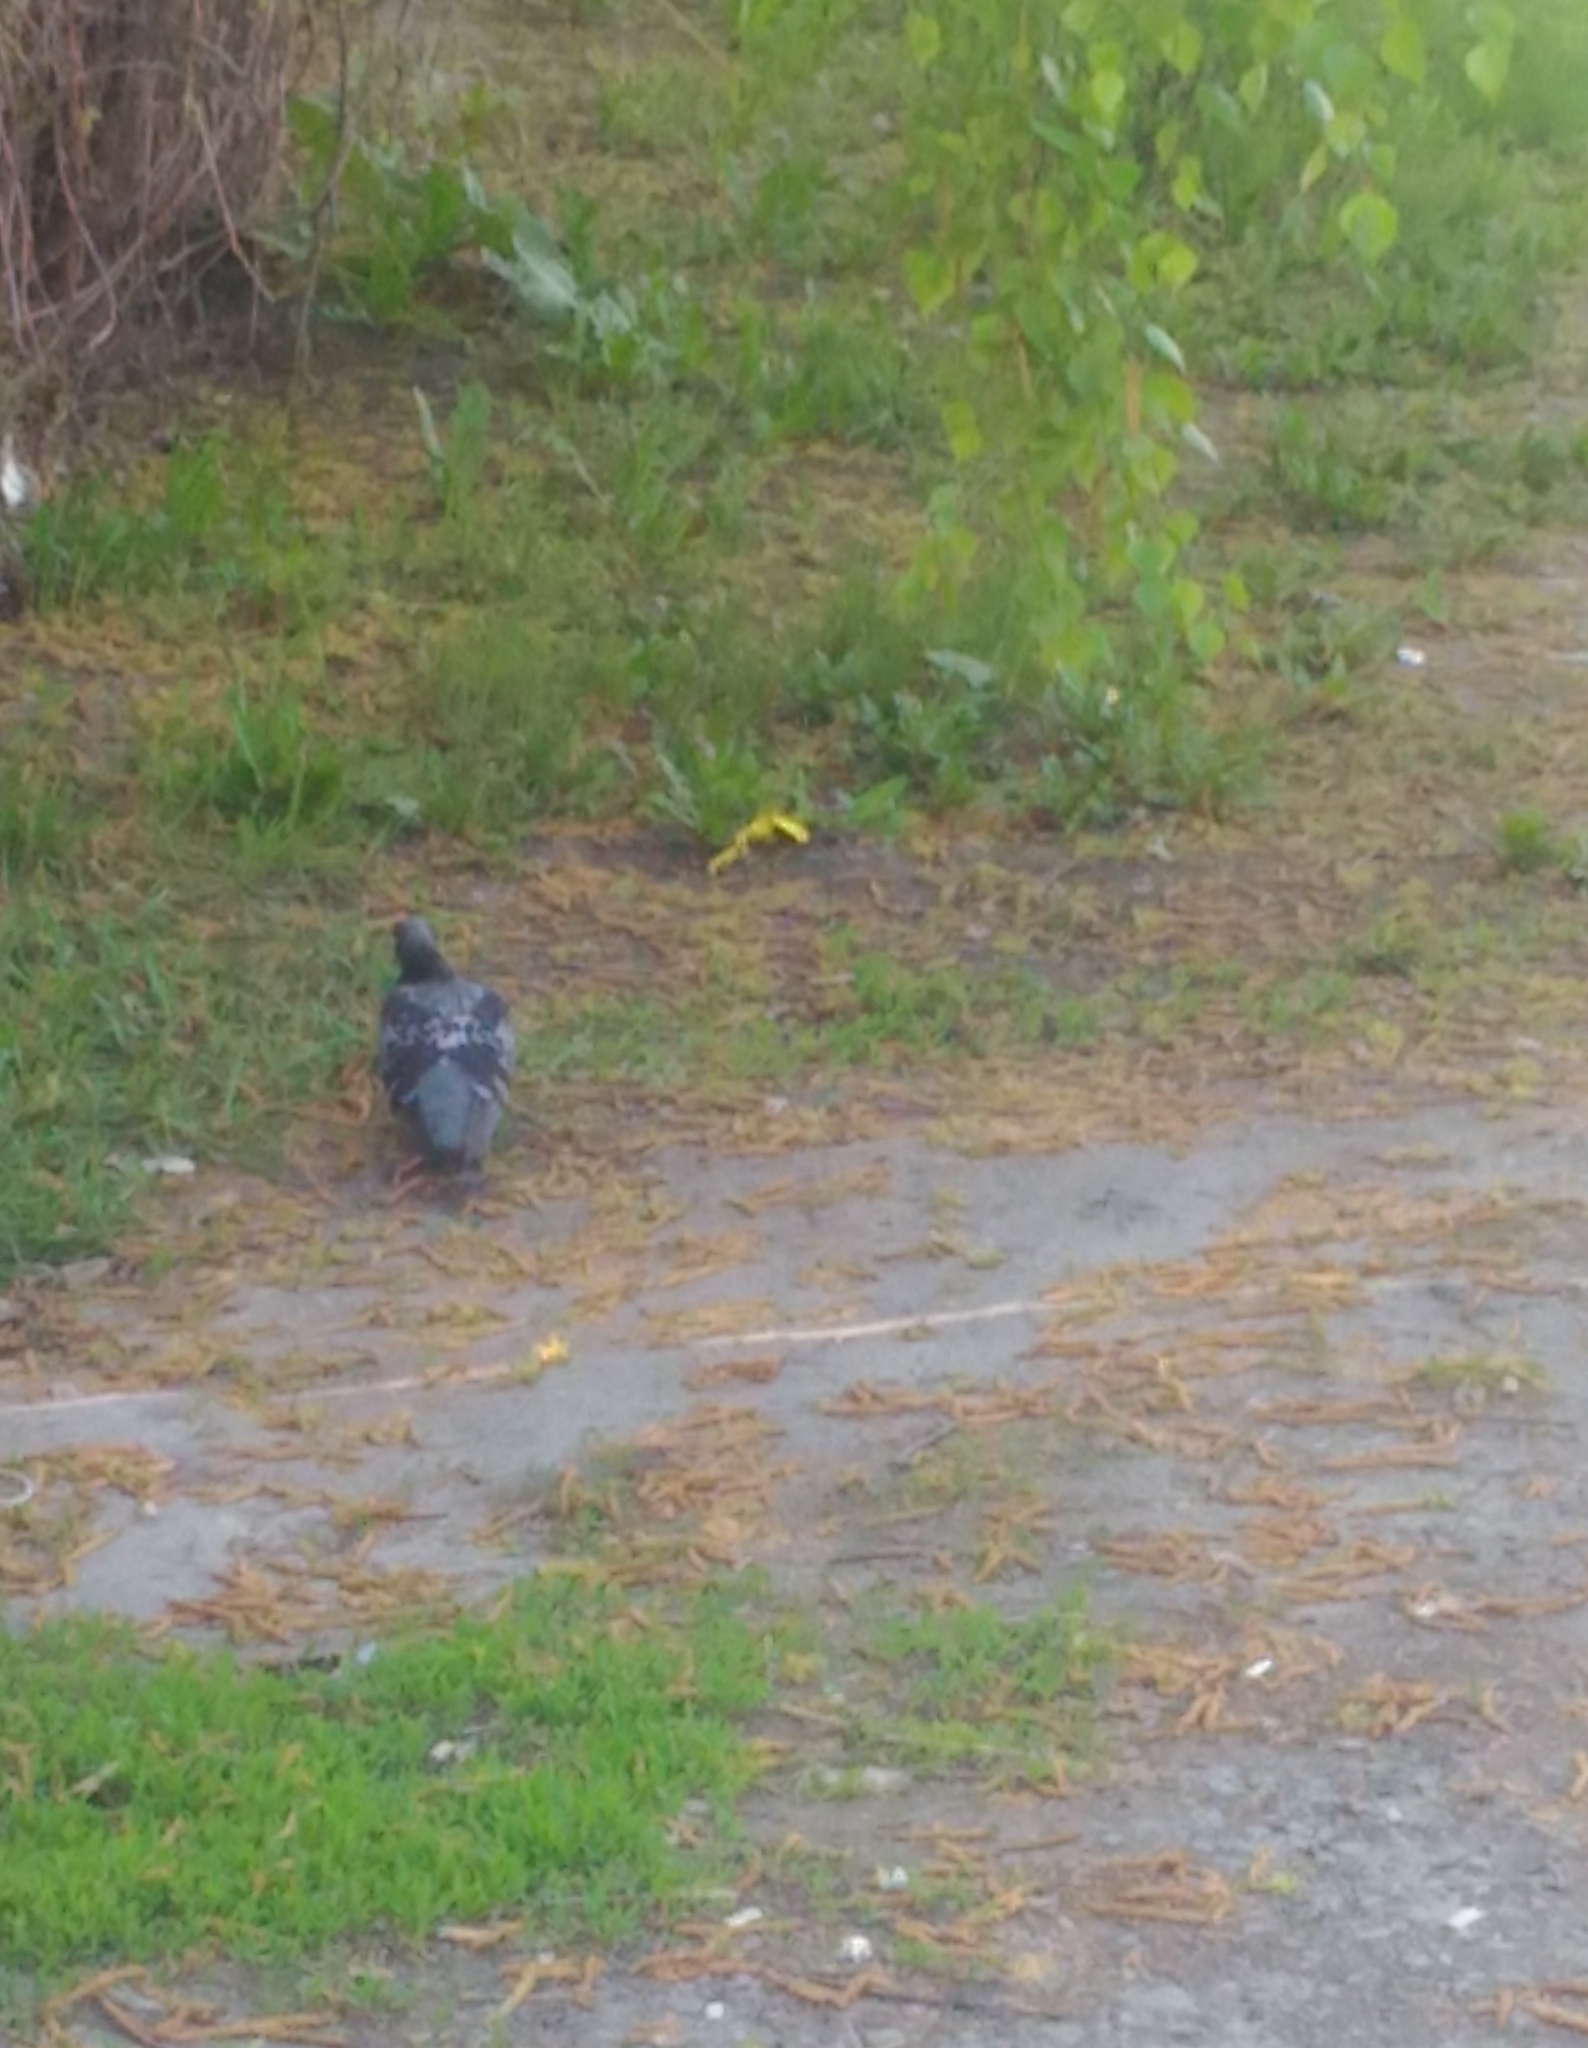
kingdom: Animalia
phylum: Chordata
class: Aves
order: Columbiformes
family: Columbidae
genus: Columba
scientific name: Columba livia
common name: Rock pigeon
